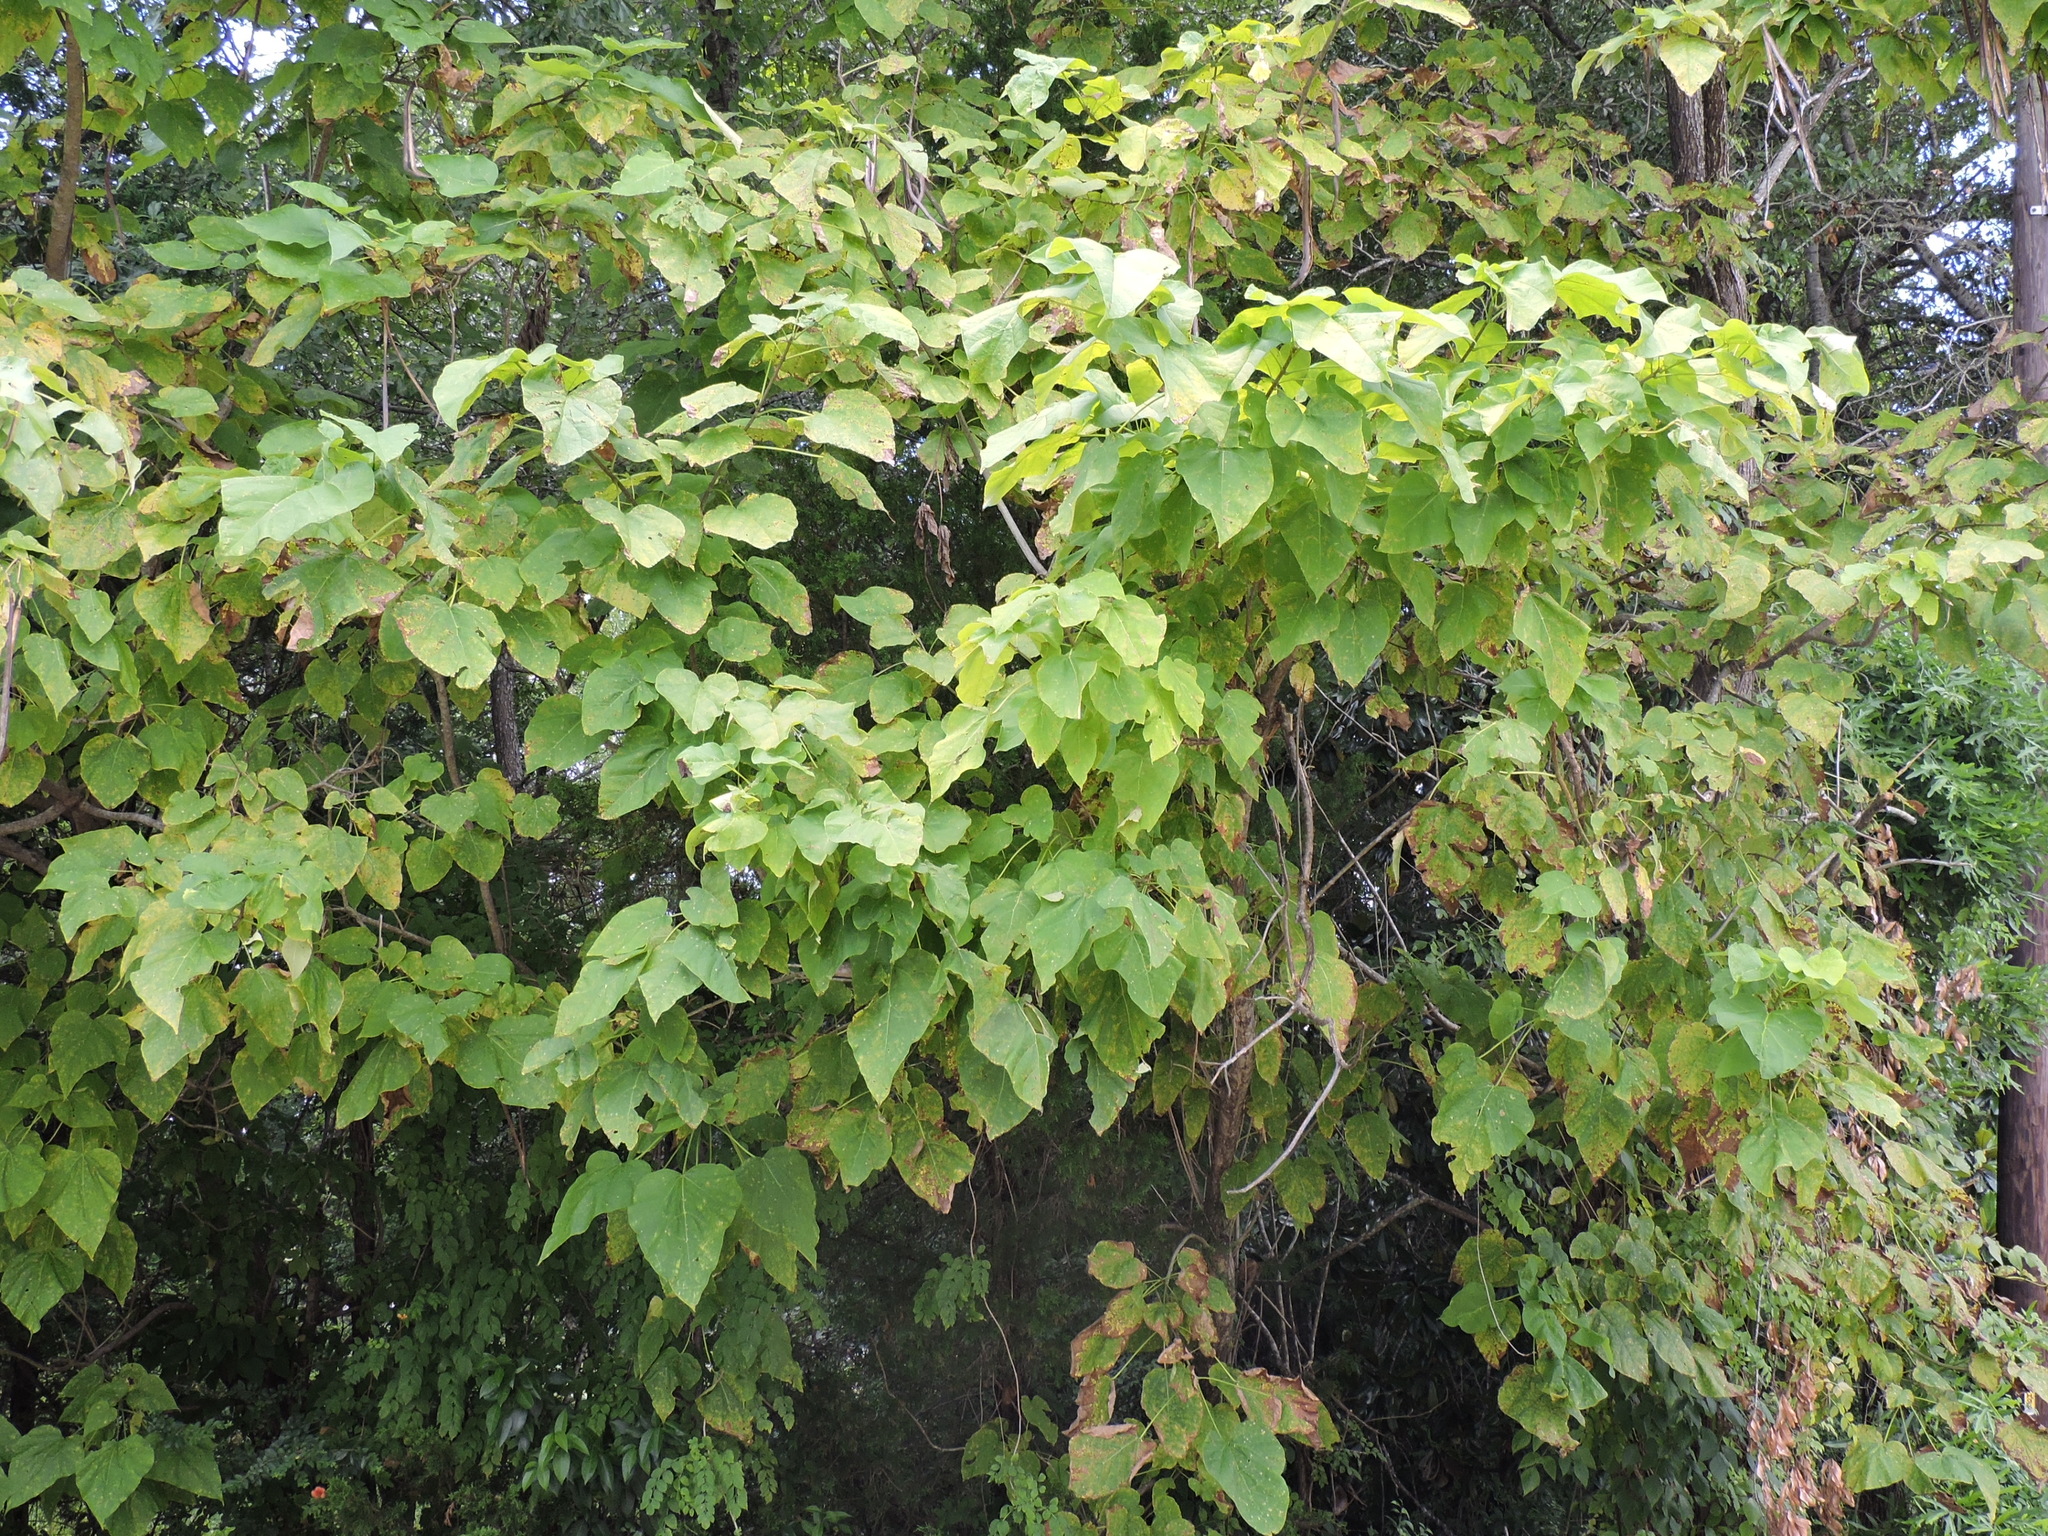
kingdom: Plantae
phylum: Tracheophyta
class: Magnoliopsida
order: Lamiales
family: Bignoniaceae
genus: Catalpa
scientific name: Catalpa speciosa
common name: Northern catalpa
